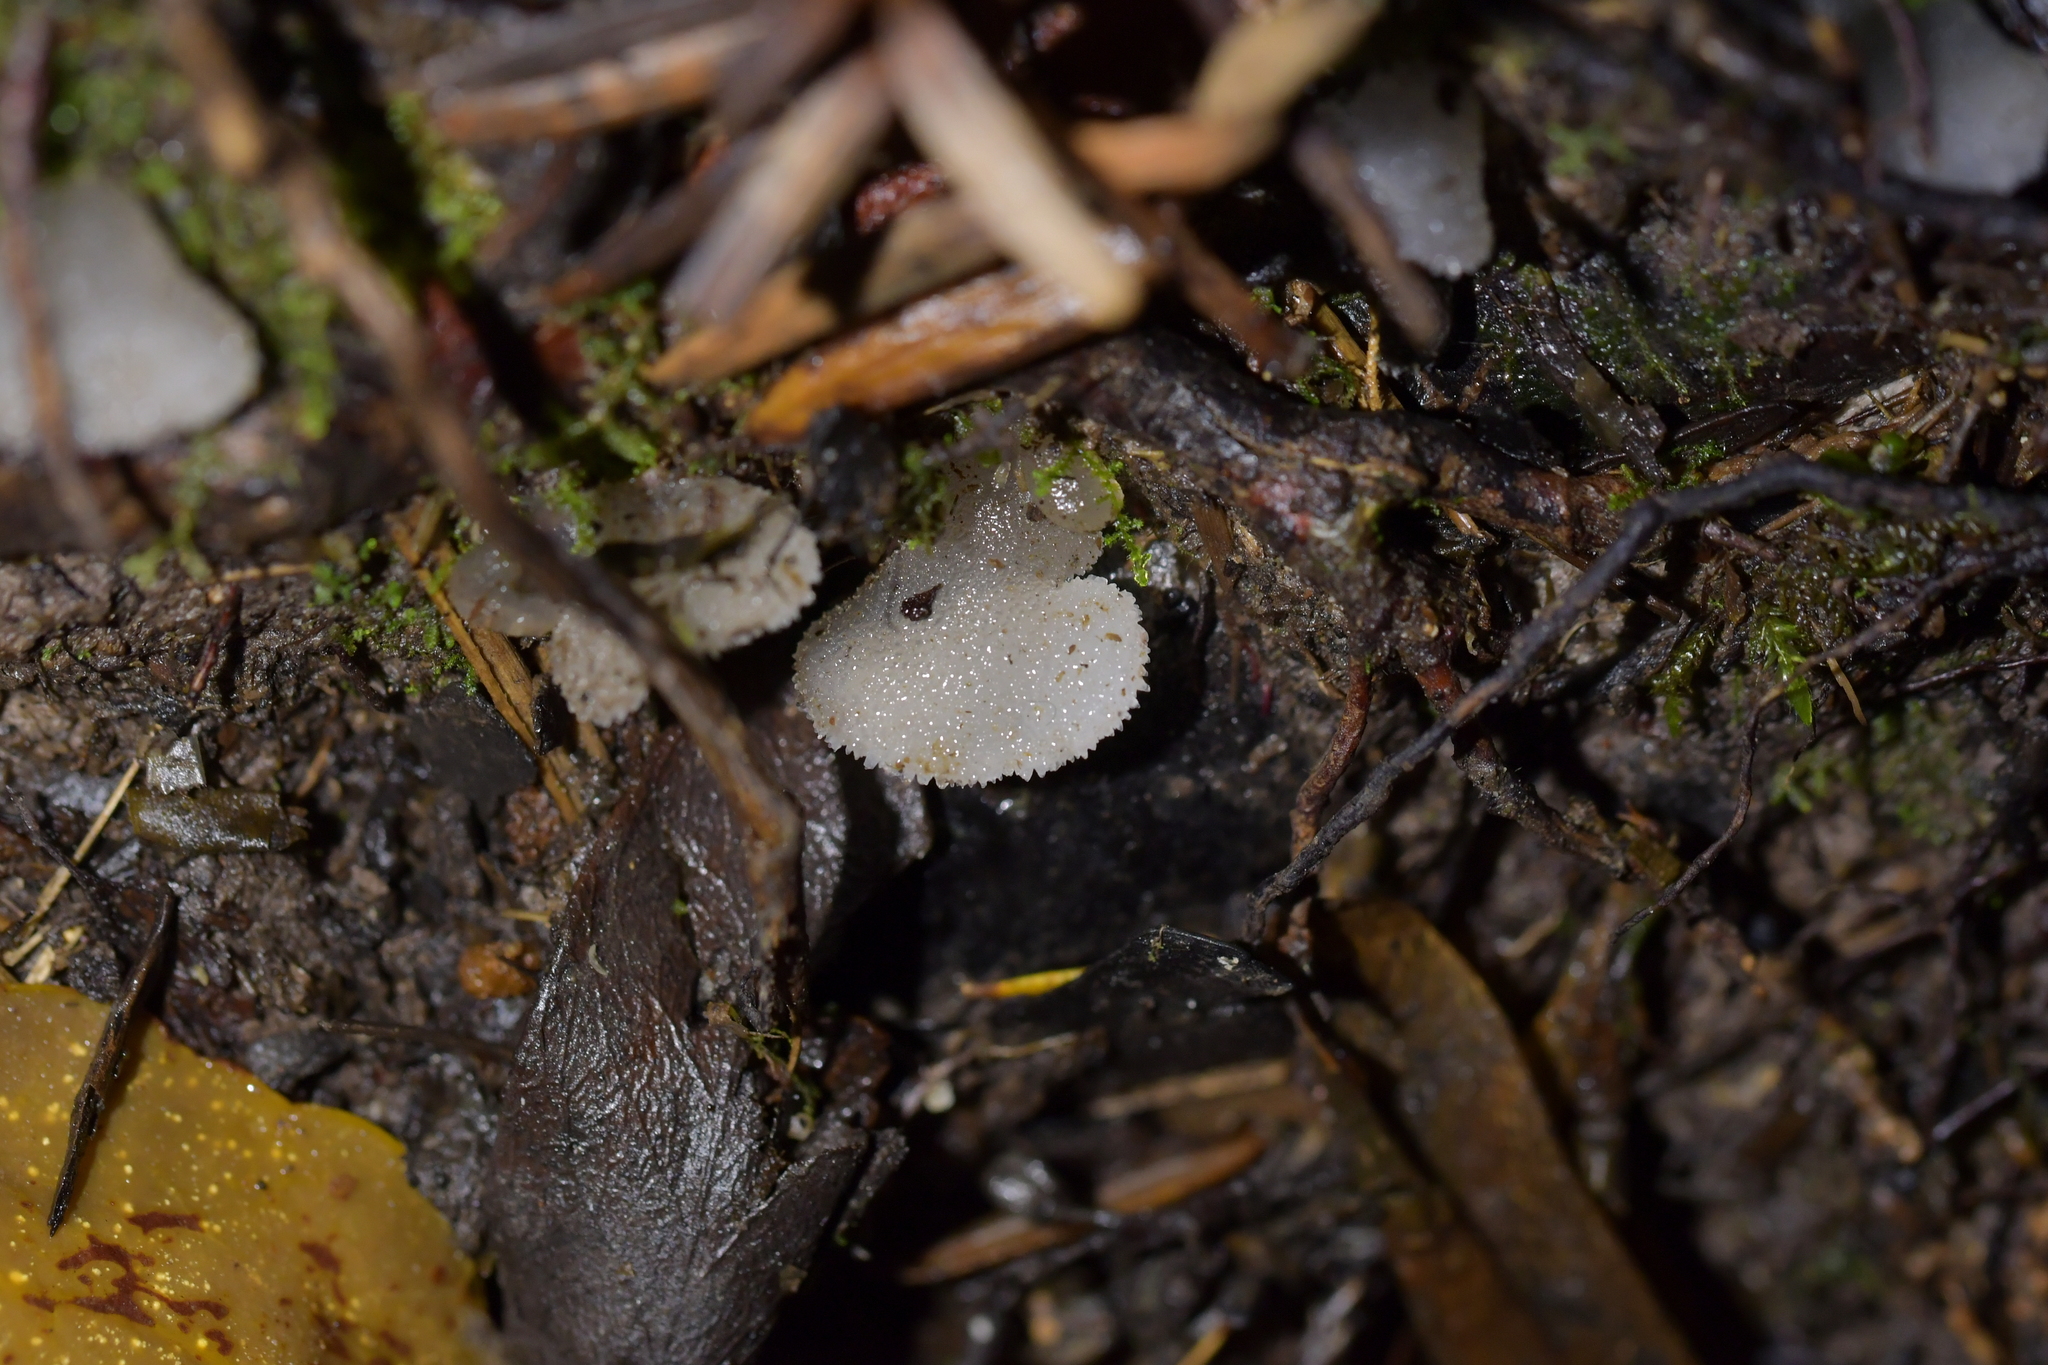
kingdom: Fungi
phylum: Basidiomycota
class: Agaricomycetes
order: Auriculariales
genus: Pseudohydnum
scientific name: Pseudohydnum orbiculare
